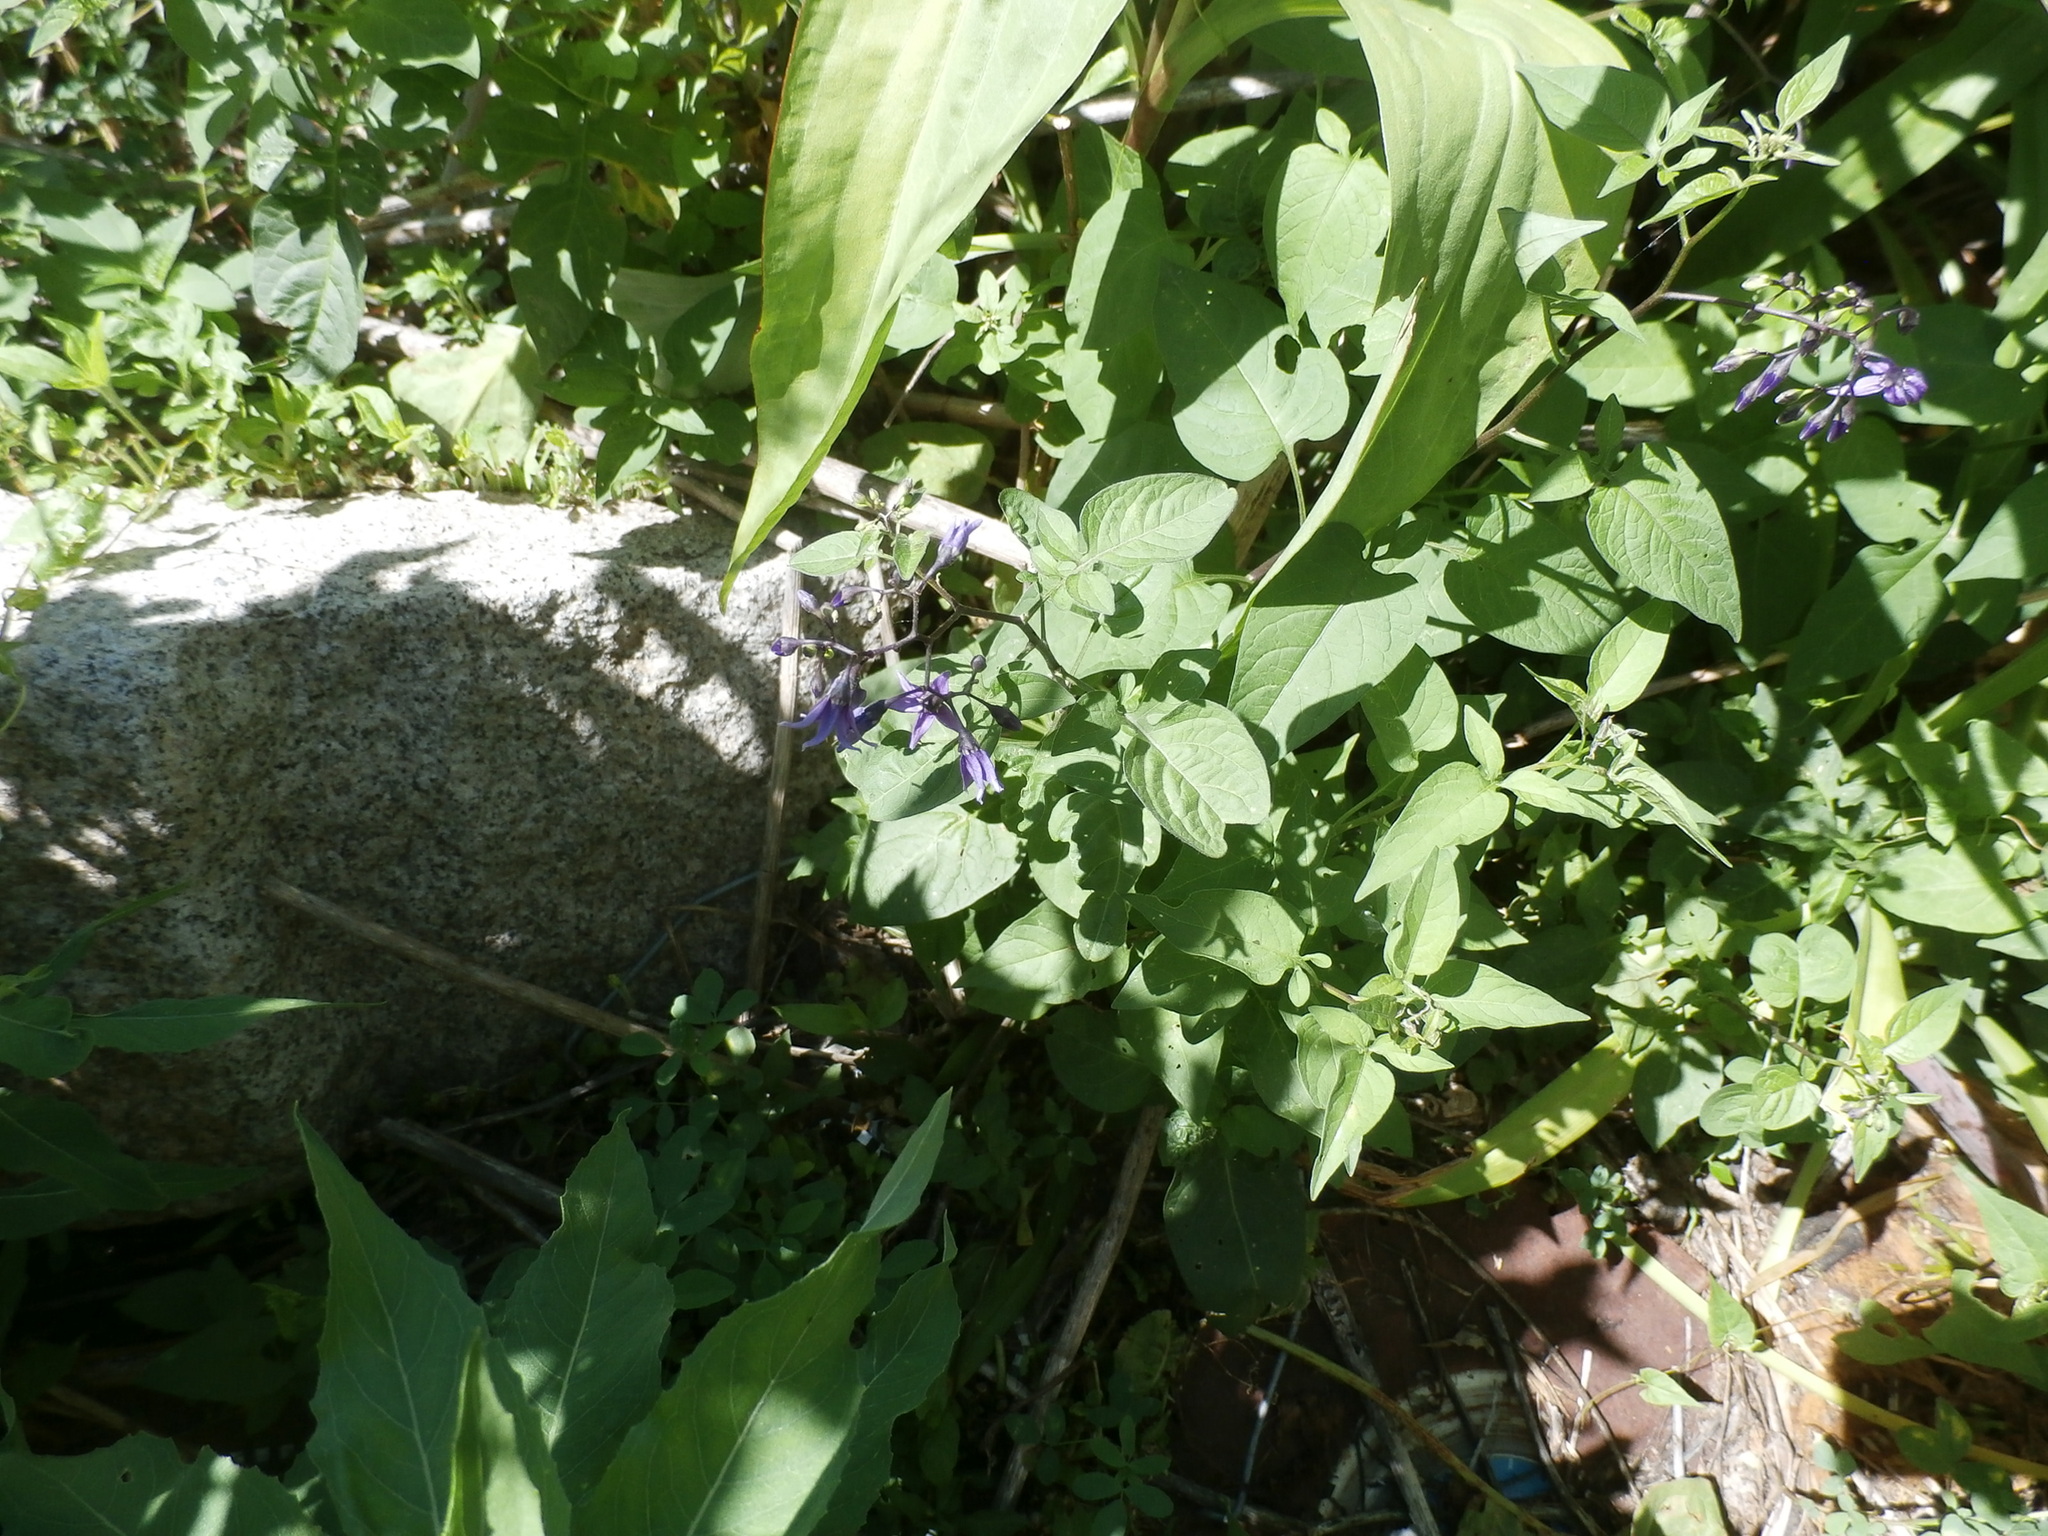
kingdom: Plantae
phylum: Tracheophyta
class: Magnoliopsida
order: Solanales
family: Solanaceae
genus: Solanum
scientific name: Solanum dulcamara
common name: Climbing nightshade
